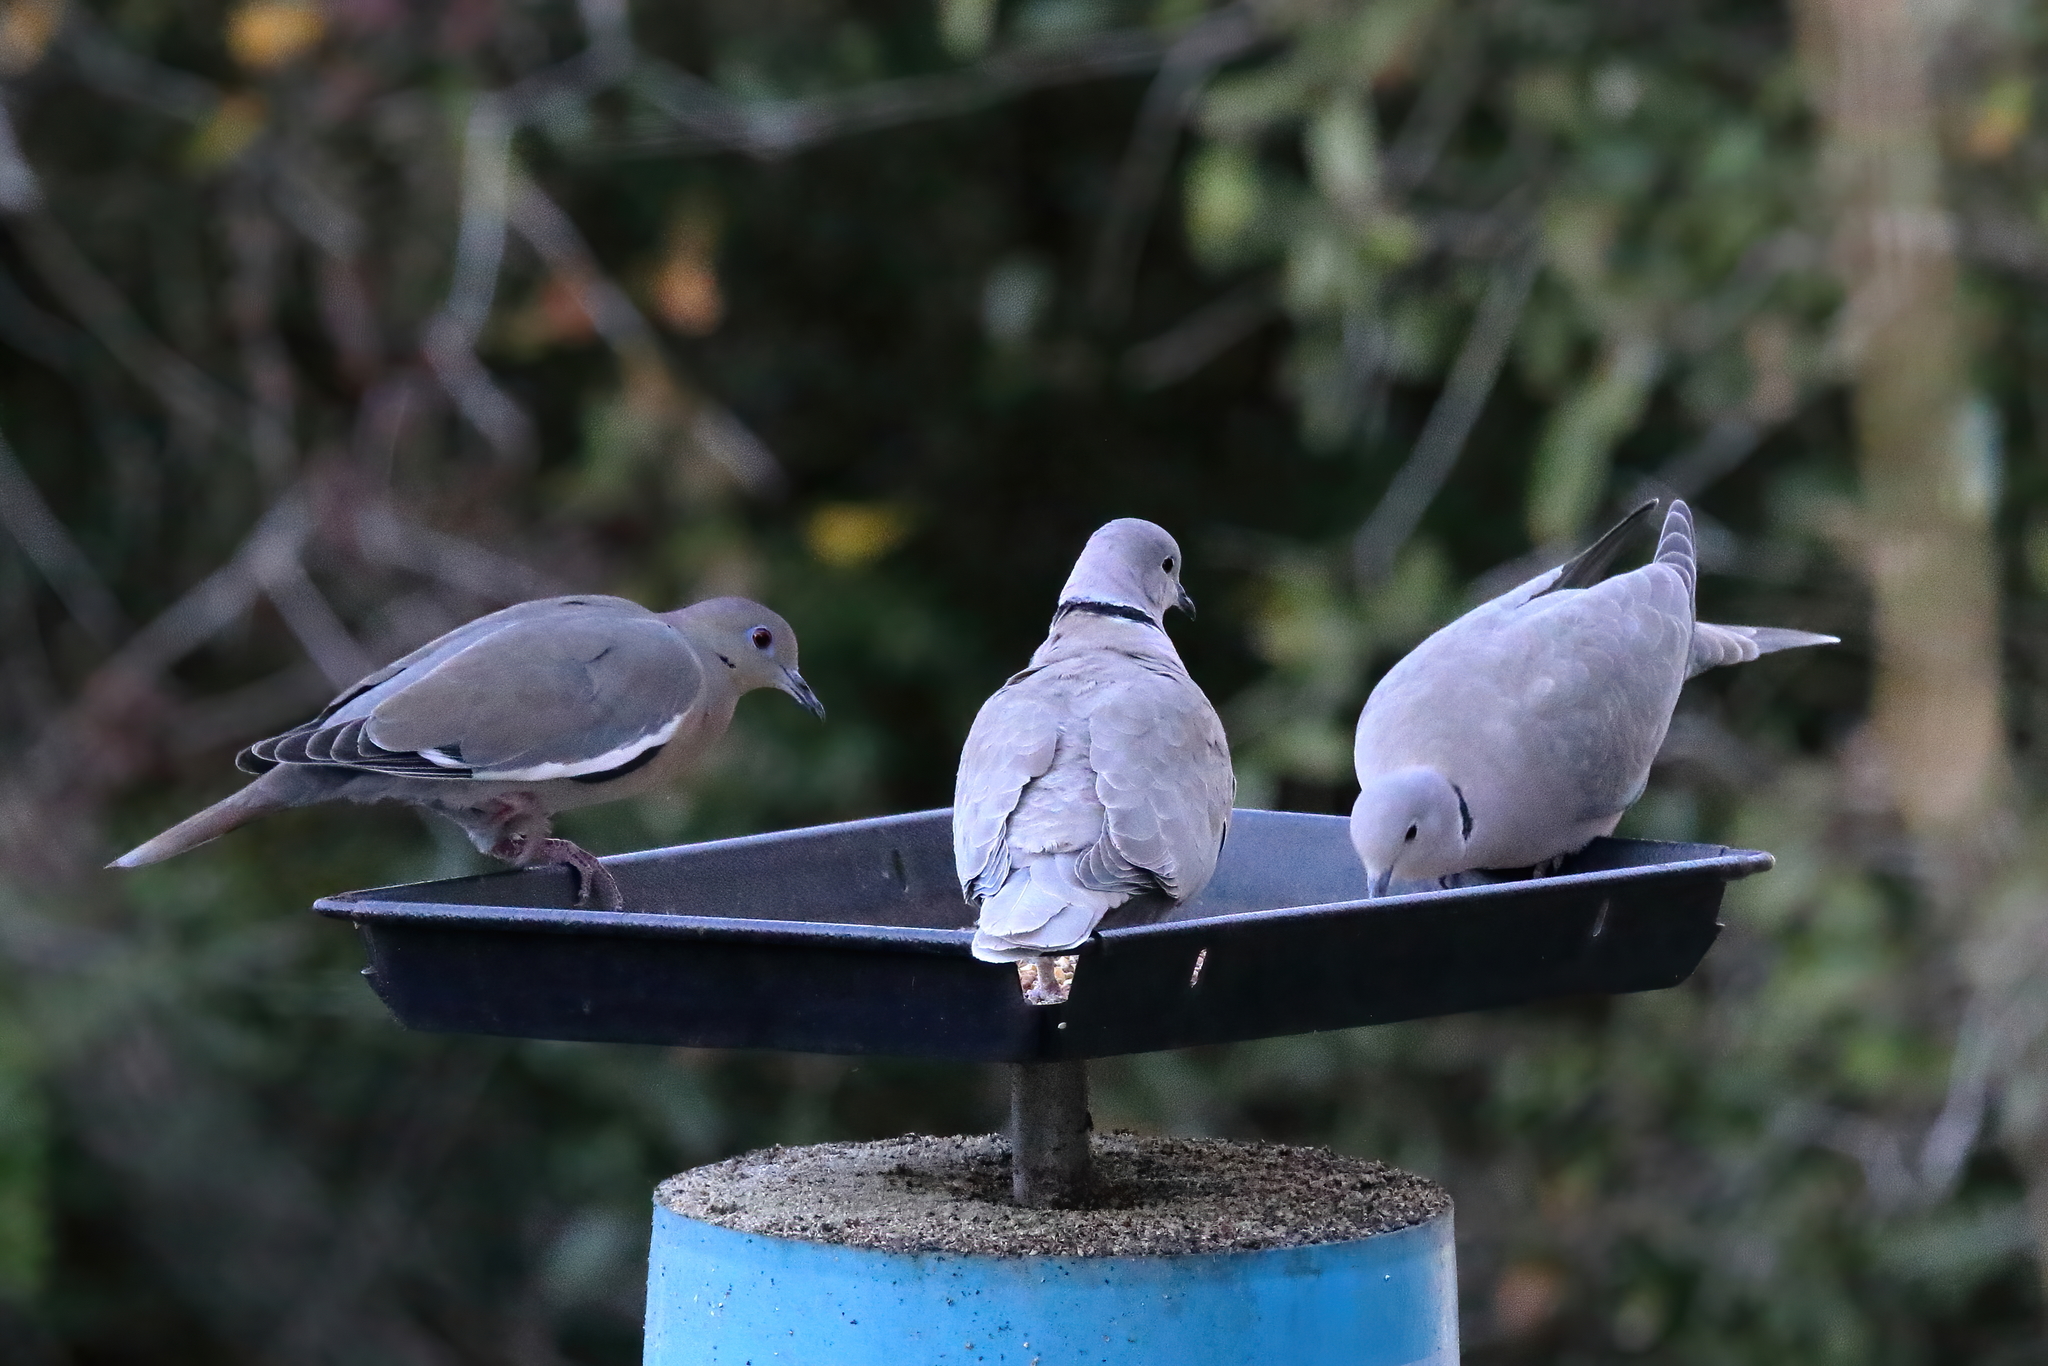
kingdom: Animalia
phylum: Chordata
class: Aves
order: Columbiformes
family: Columbidae
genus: Streptopelia
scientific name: Streptopelia decaocto
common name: Eurasian collared dove
